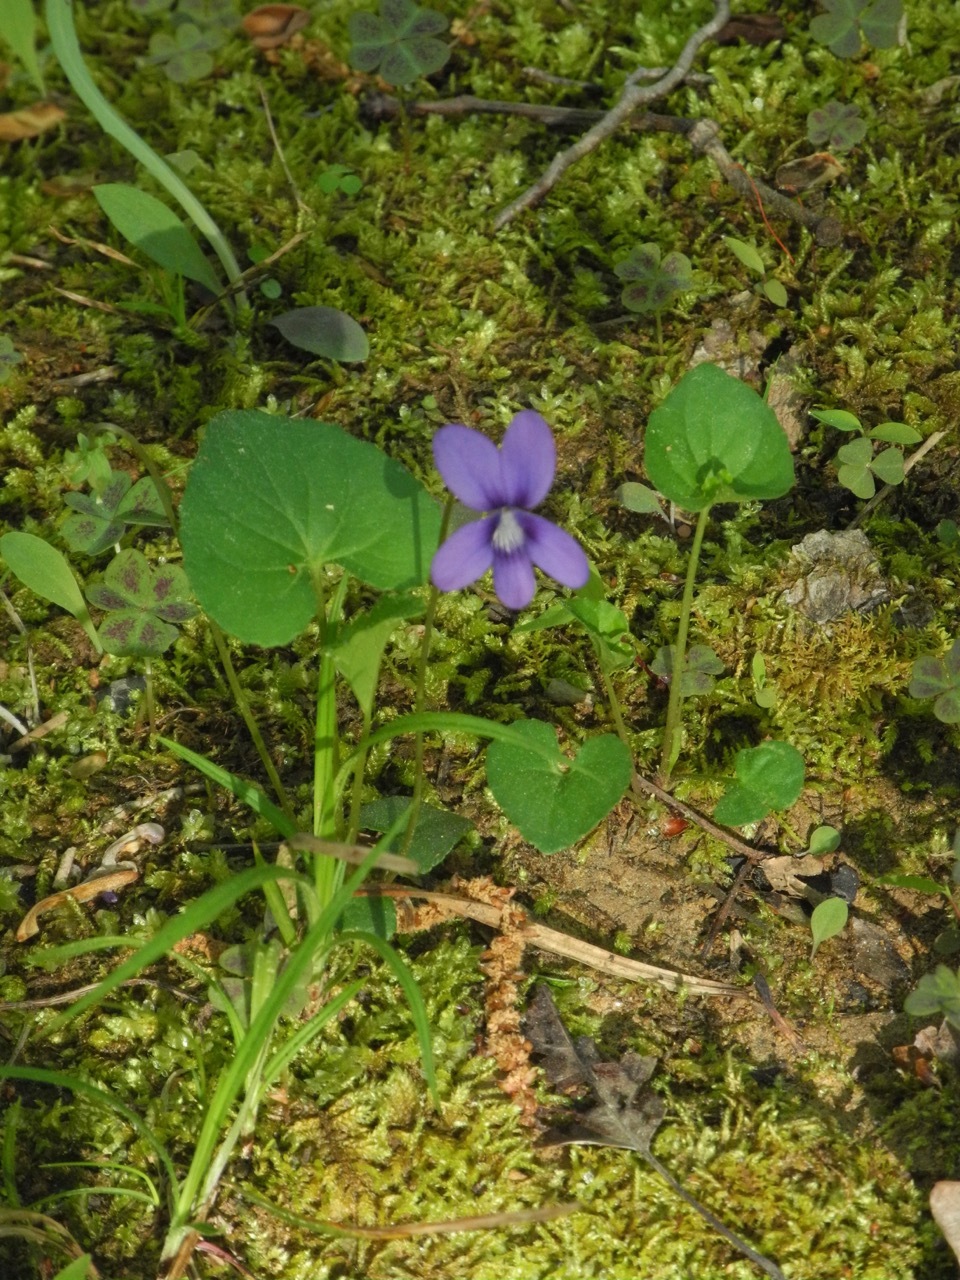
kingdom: Plantae
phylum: Tracheophyta
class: Magnoliopsida
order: Malpighiales
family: Violaceae
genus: Viola
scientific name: Viola sororia
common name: Dooryard violet
